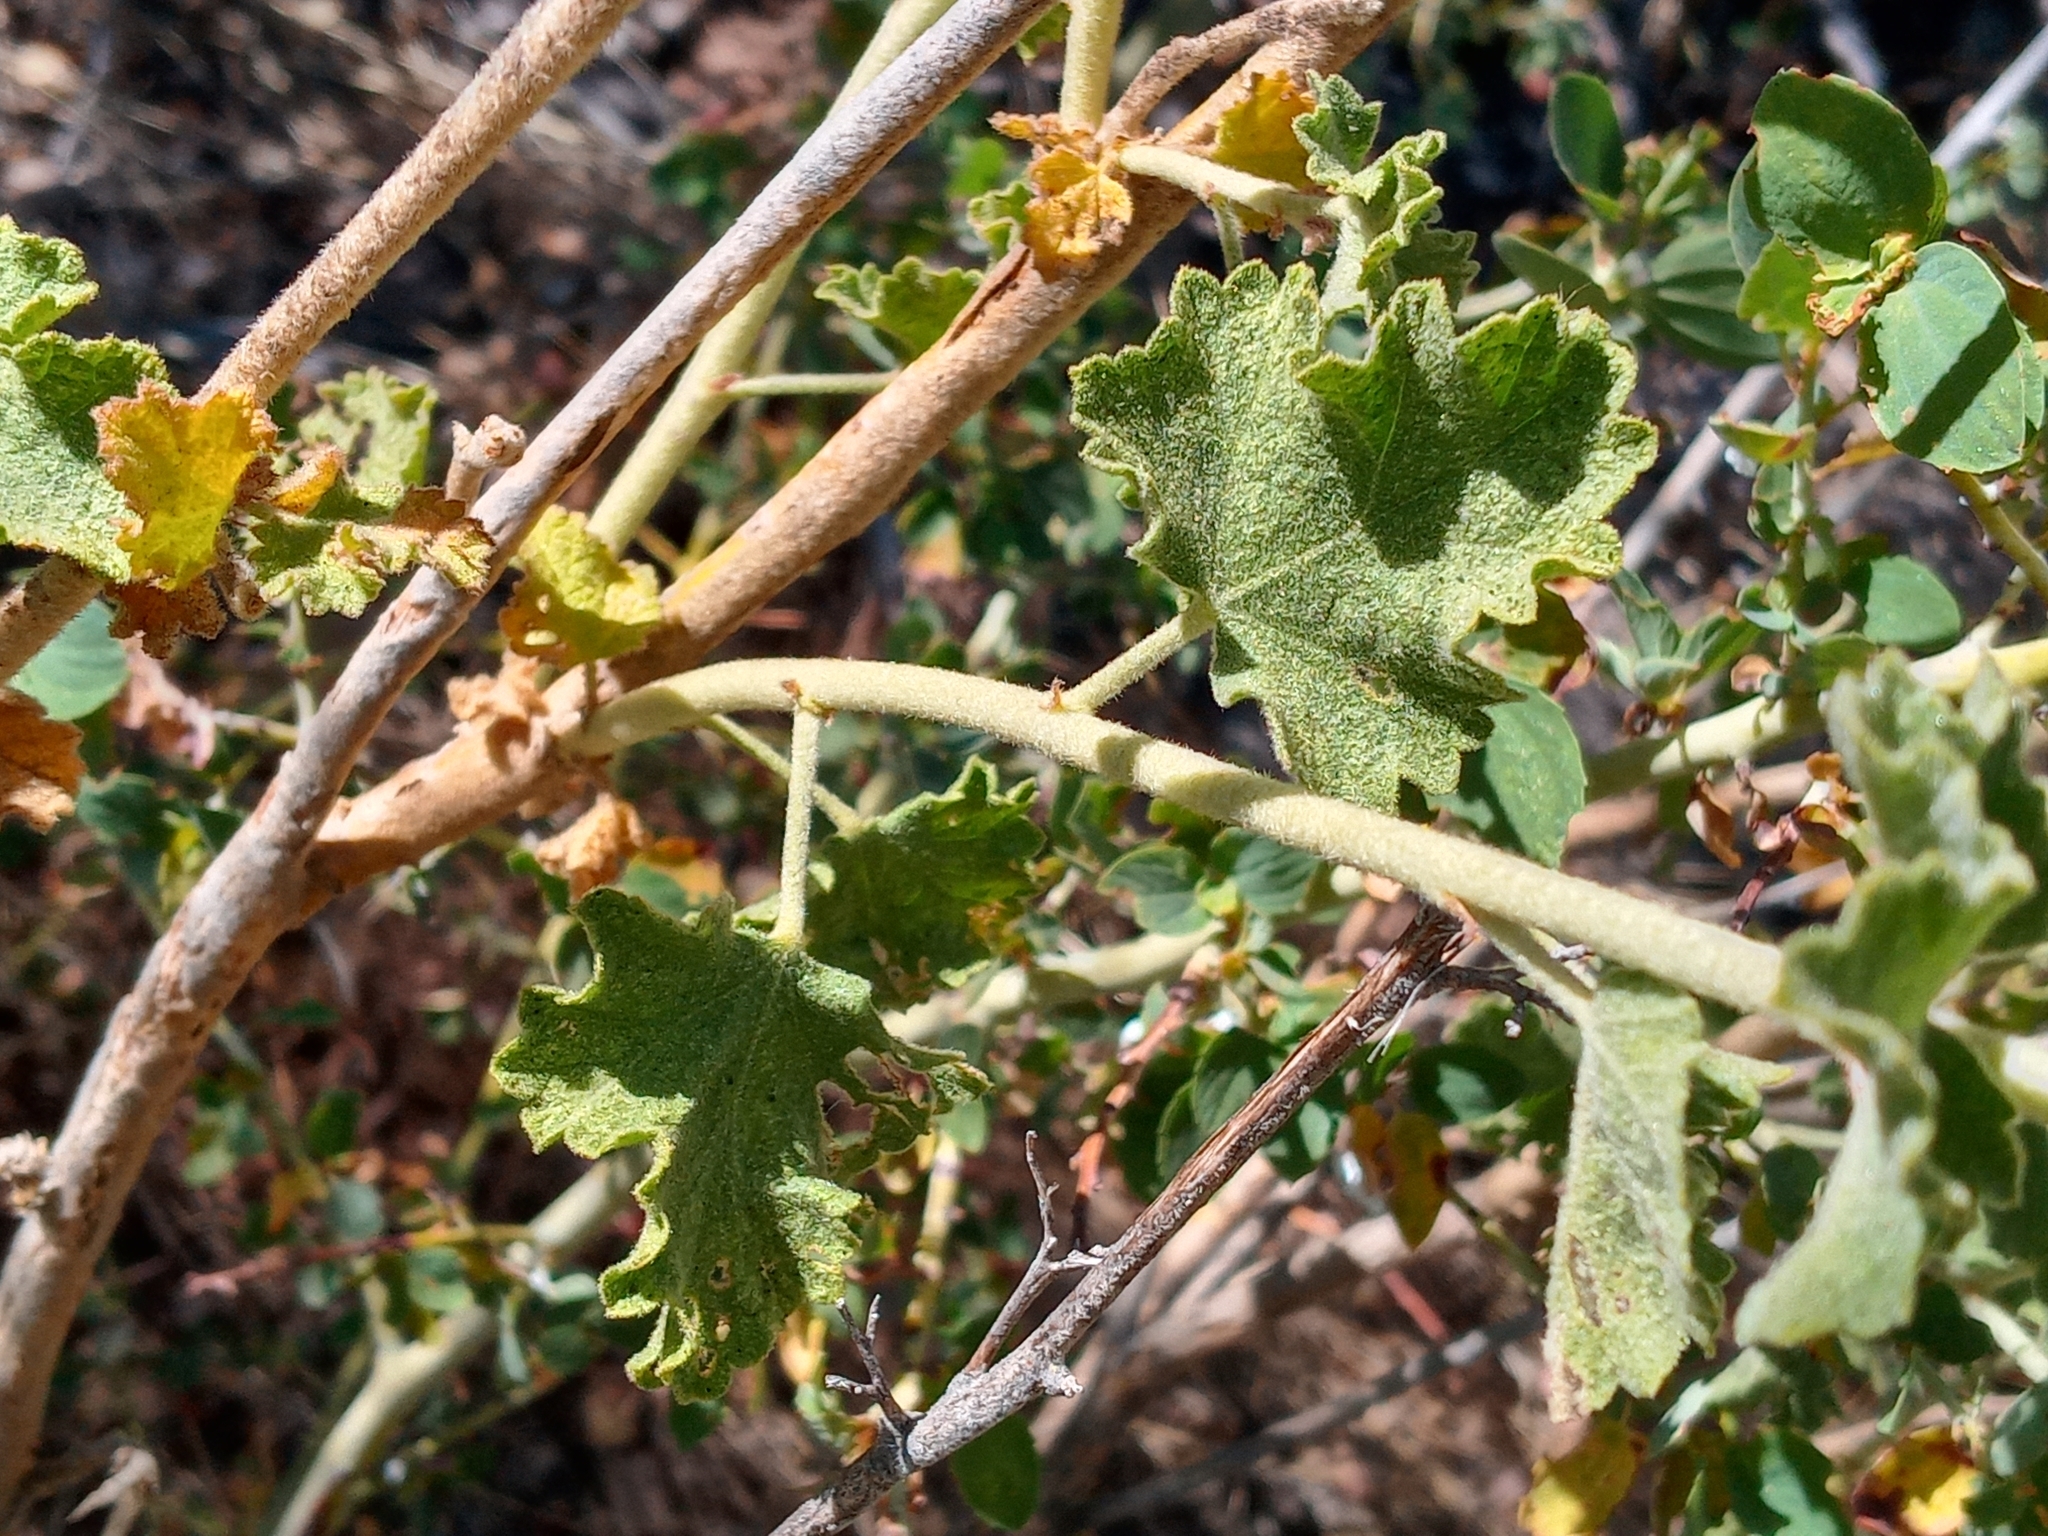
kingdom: Plantae
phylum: Tracheophyta
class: Magnoliopsida
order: Malvales
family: Malvaceae
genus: Malacothamnus
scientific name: Malacothamnus fremontii
